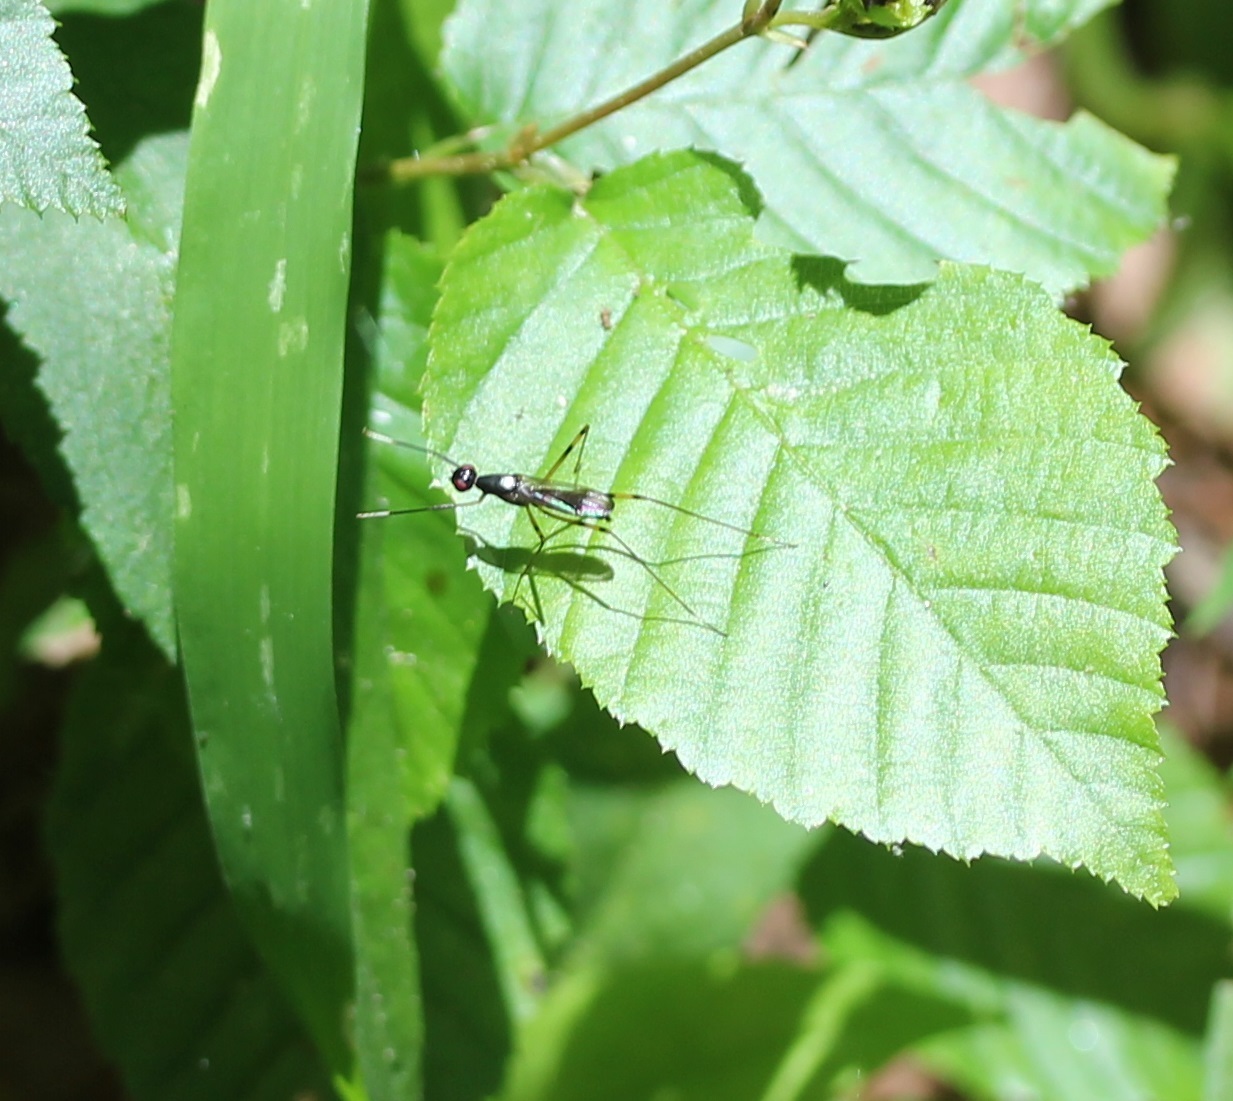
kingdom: Animalia
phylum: Arthropoda
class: Insecta
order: Diptera
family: Micropezidae
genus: Rainieria
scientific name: Rainieria antennaepes
